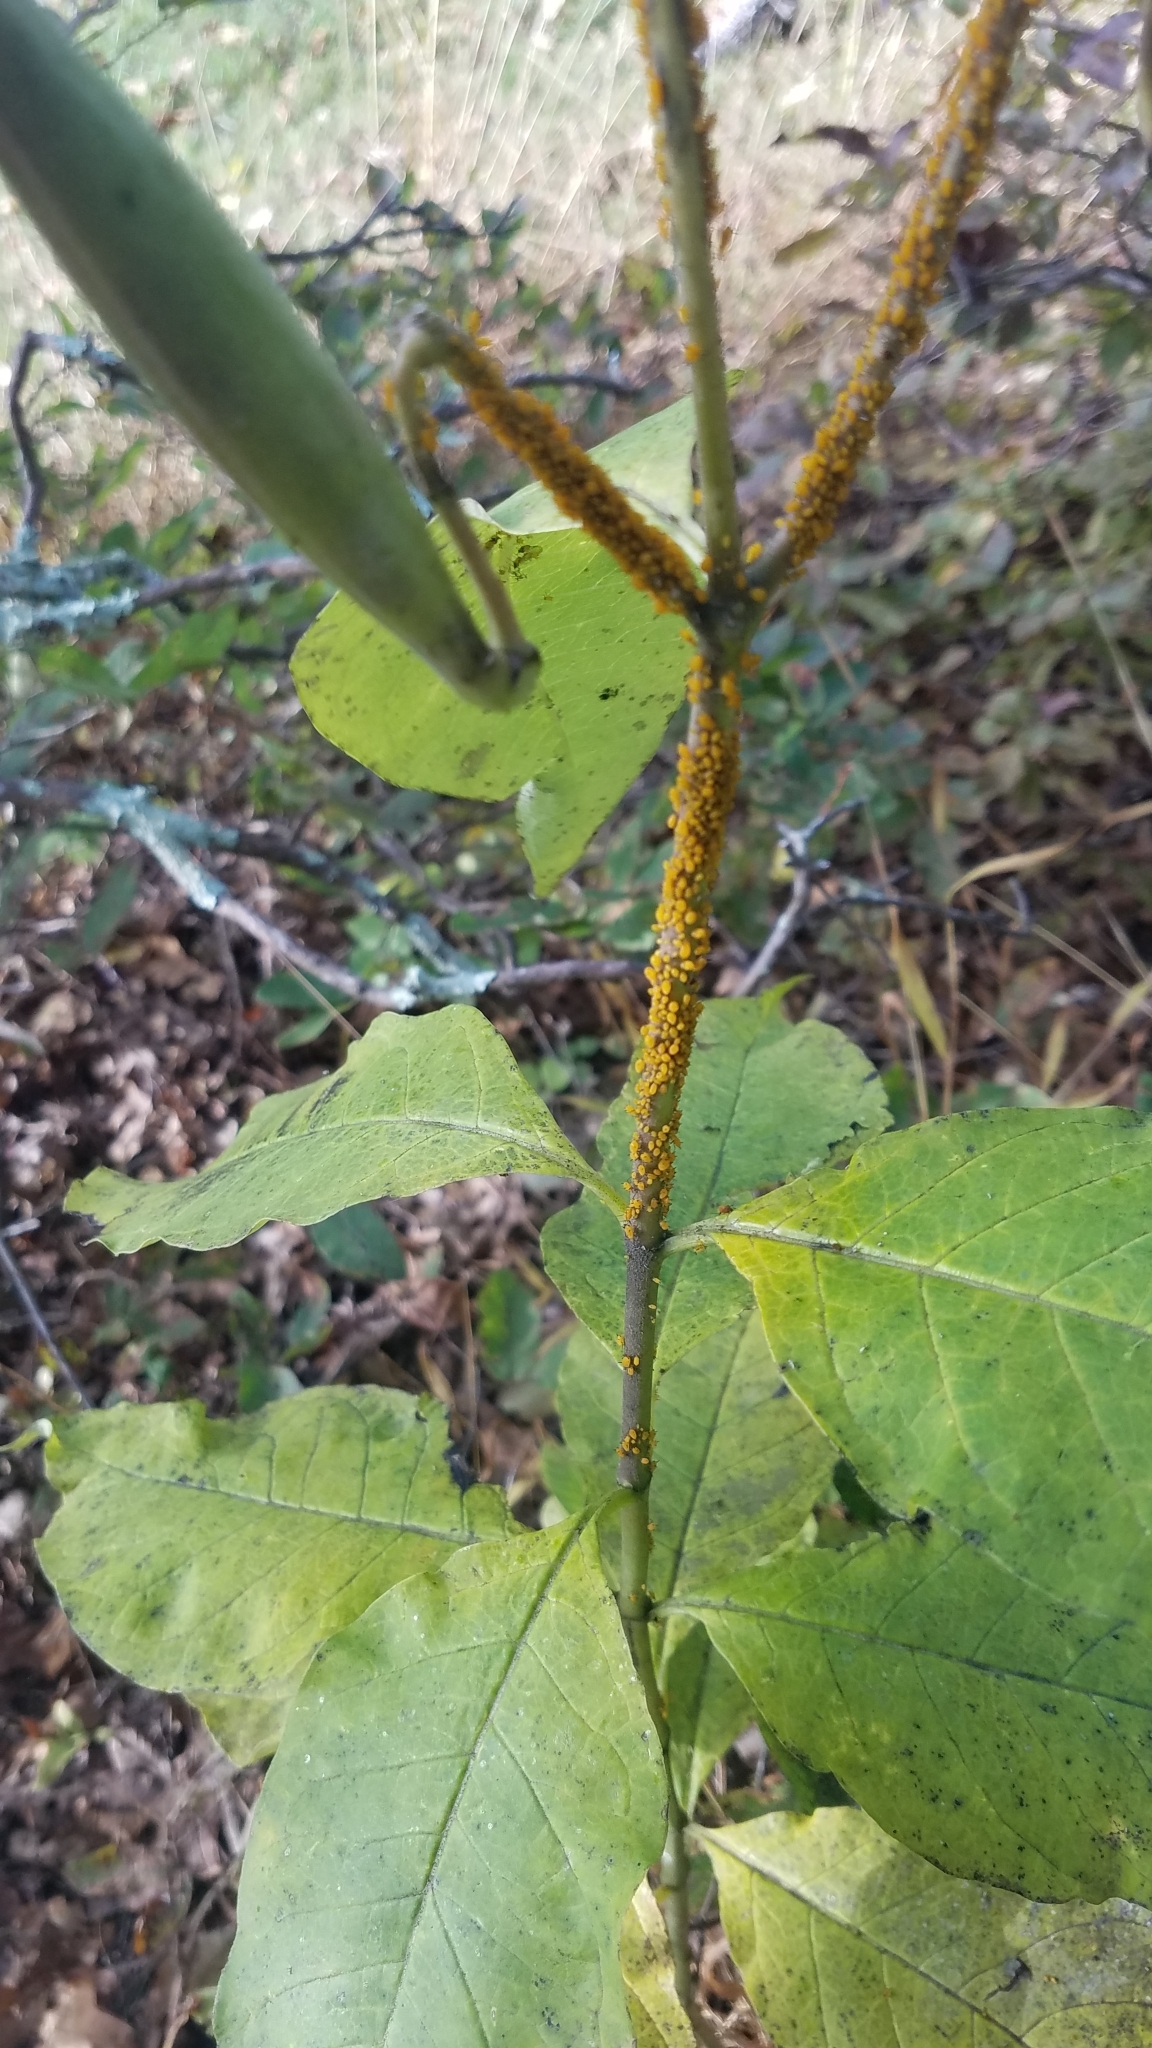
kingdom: Animalia
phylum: Arthropoda
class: Insecta
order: Hemiptera
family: Aphididae
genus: Aphis
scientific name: Aphis nerii
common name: Oleander aphid
